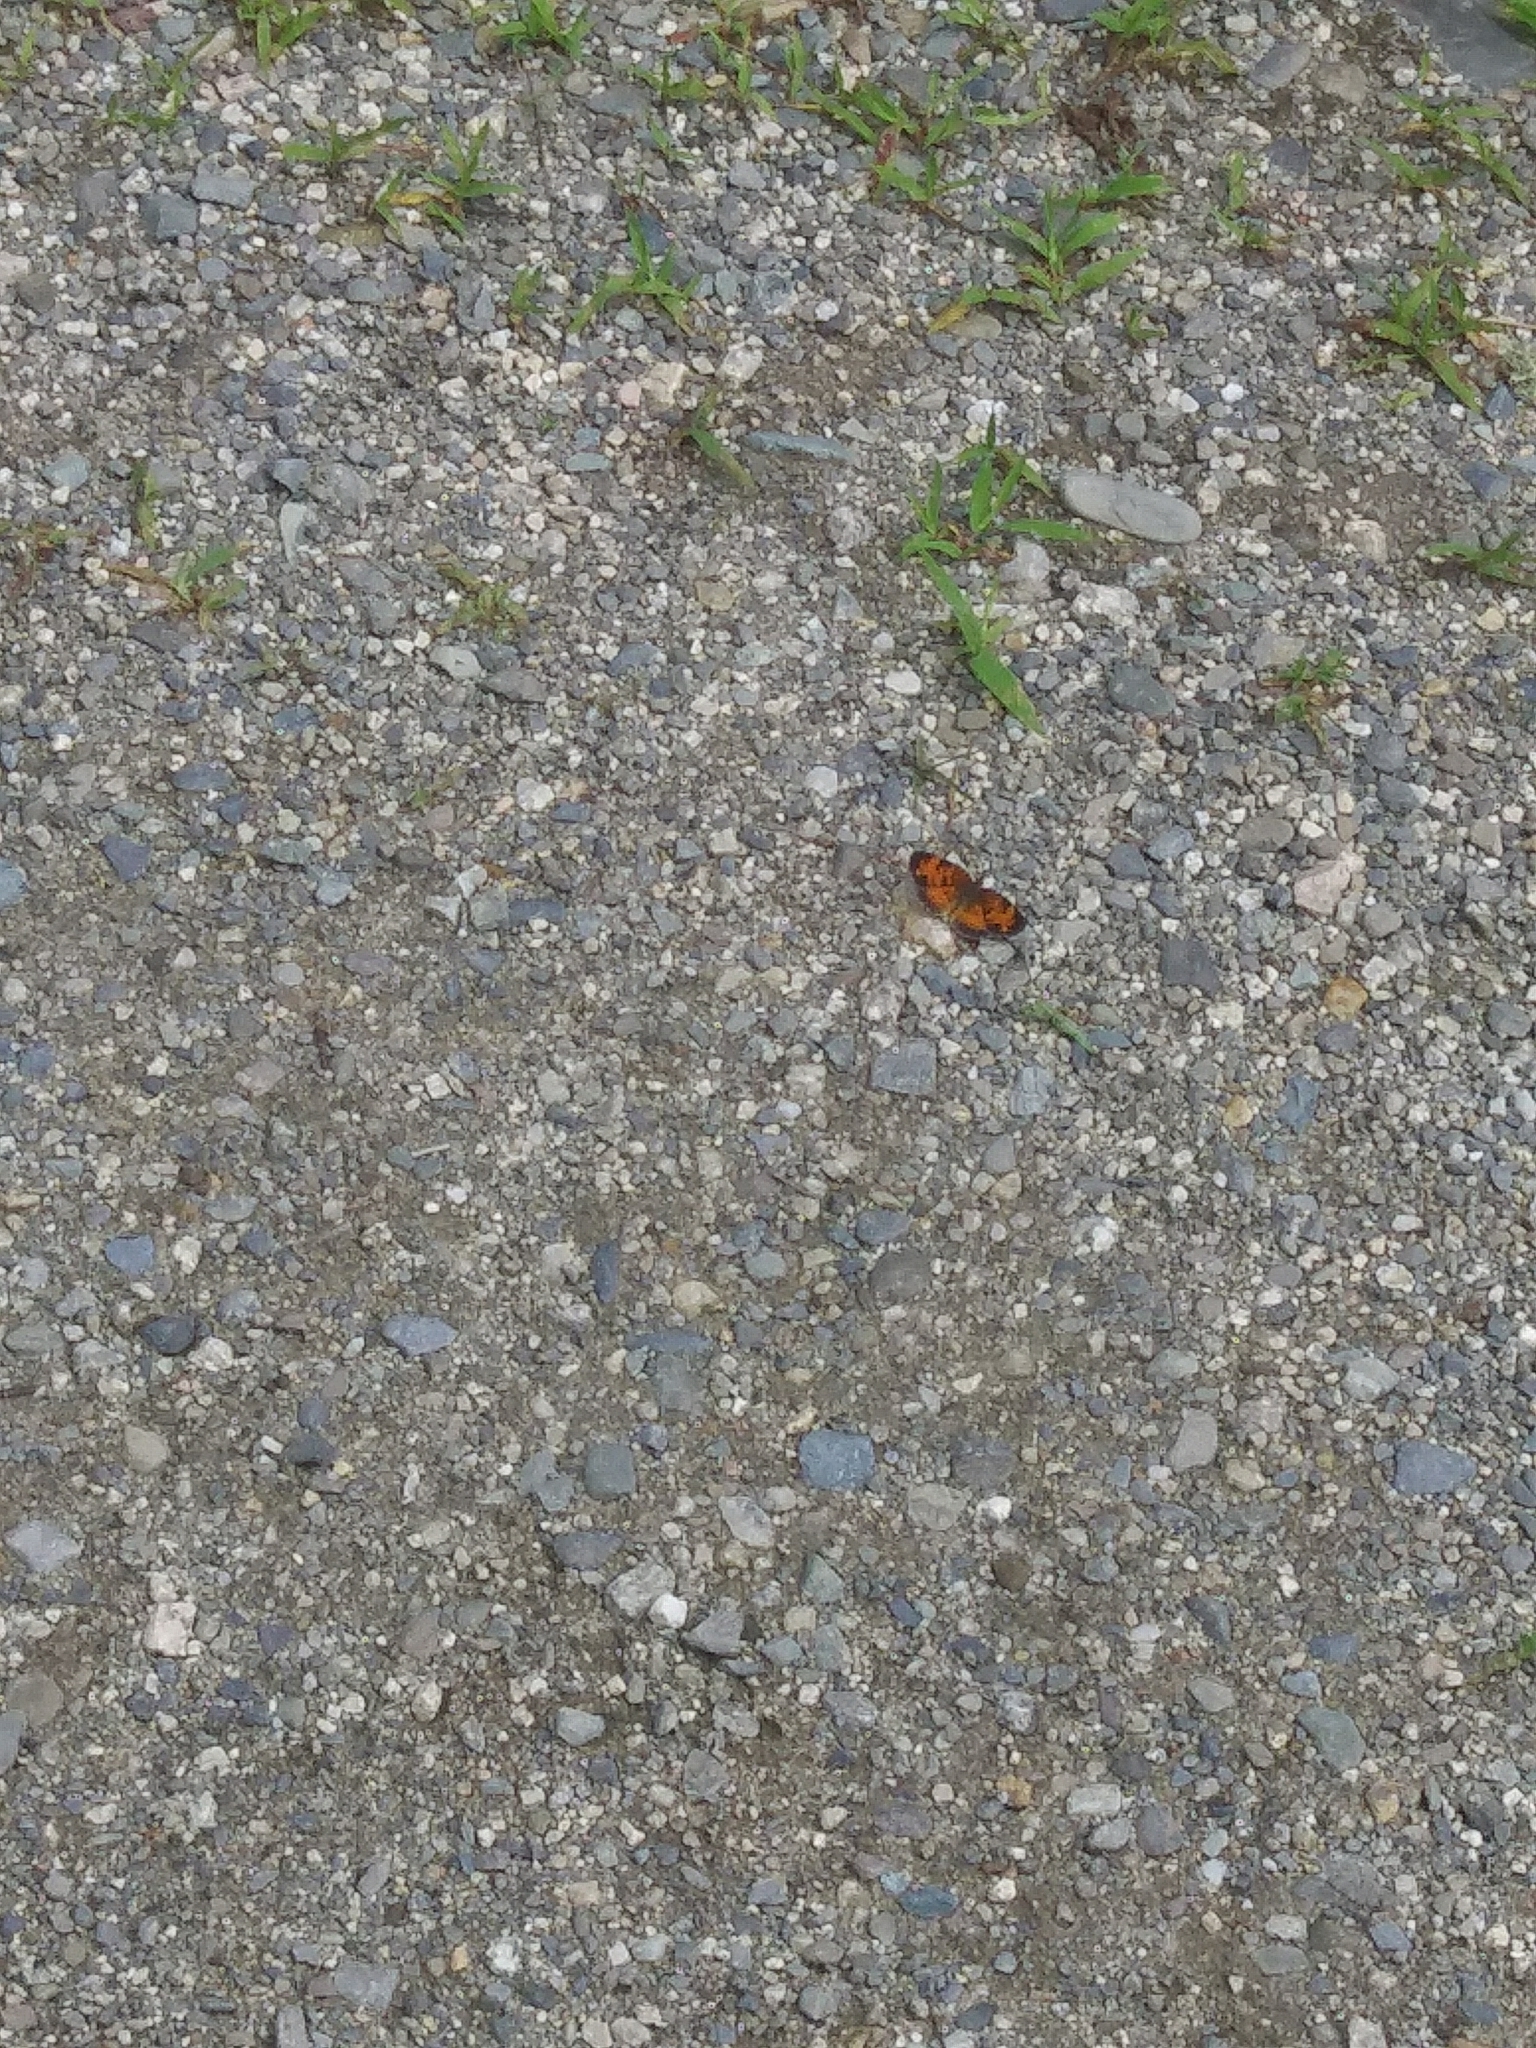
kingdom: Animalia
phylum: Arthropoda
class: Insecta
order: Lepidoptera
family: Nymphalidae
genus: Phyciodes
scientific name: Phyciodes tharos
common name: Pearl crescent
